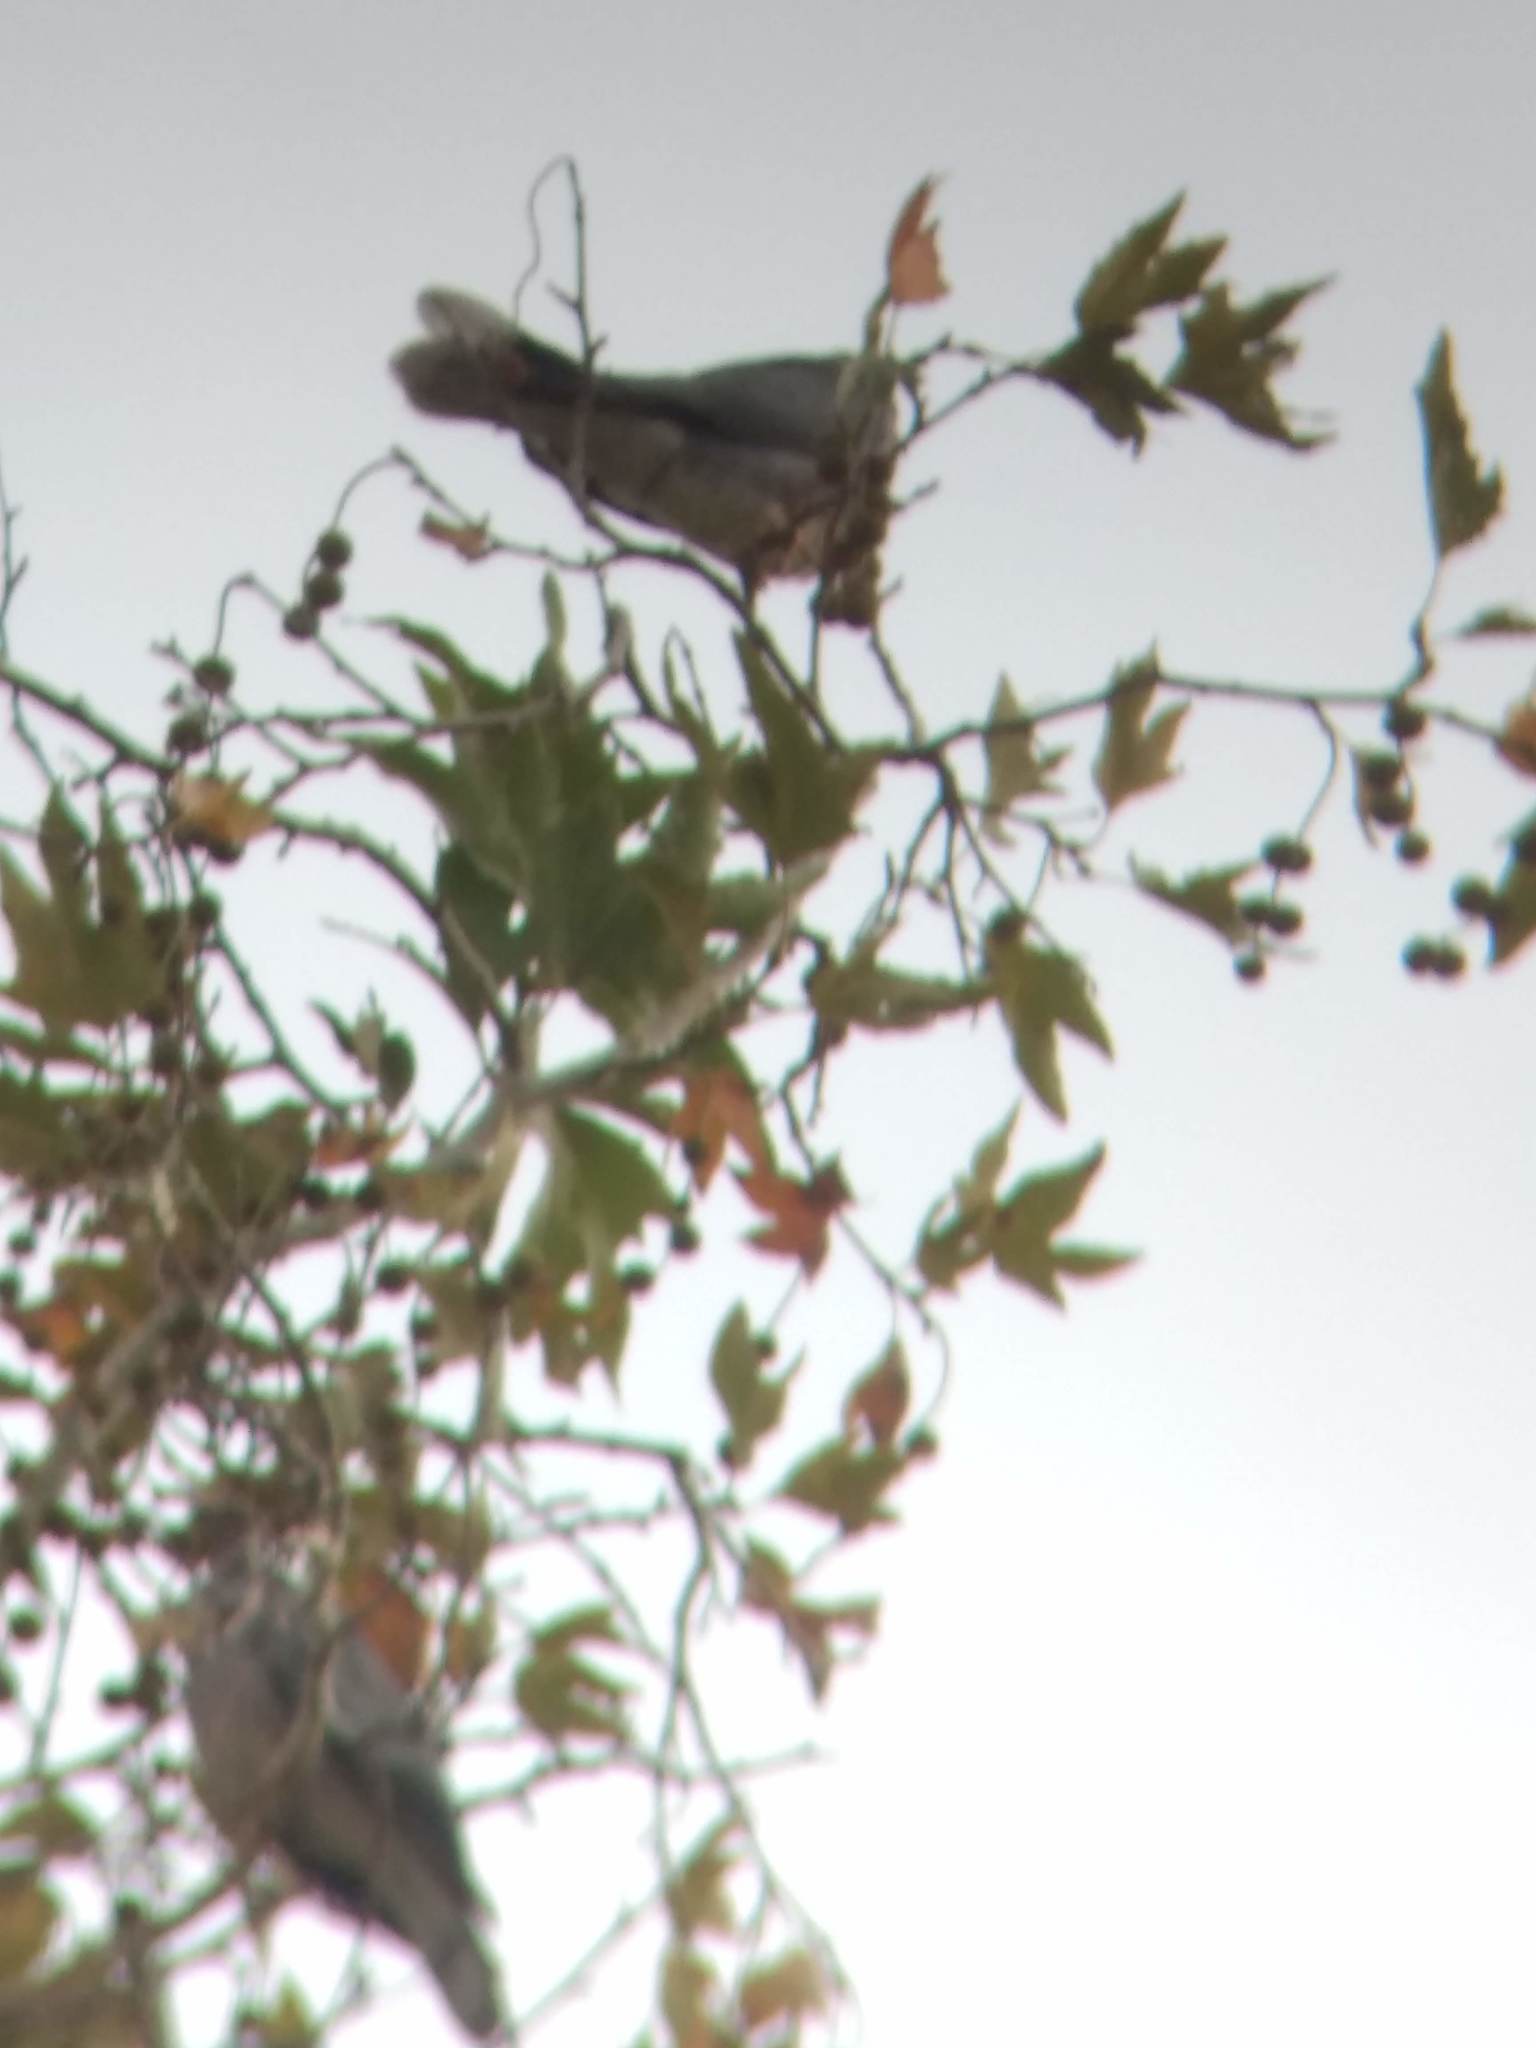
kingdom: Animalia
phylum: Chordata
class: Aves
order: Columbiformes
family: Columbidae
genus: Patagioenas
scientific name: Patagioenas fasciata
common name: Band-tailed pigeon
